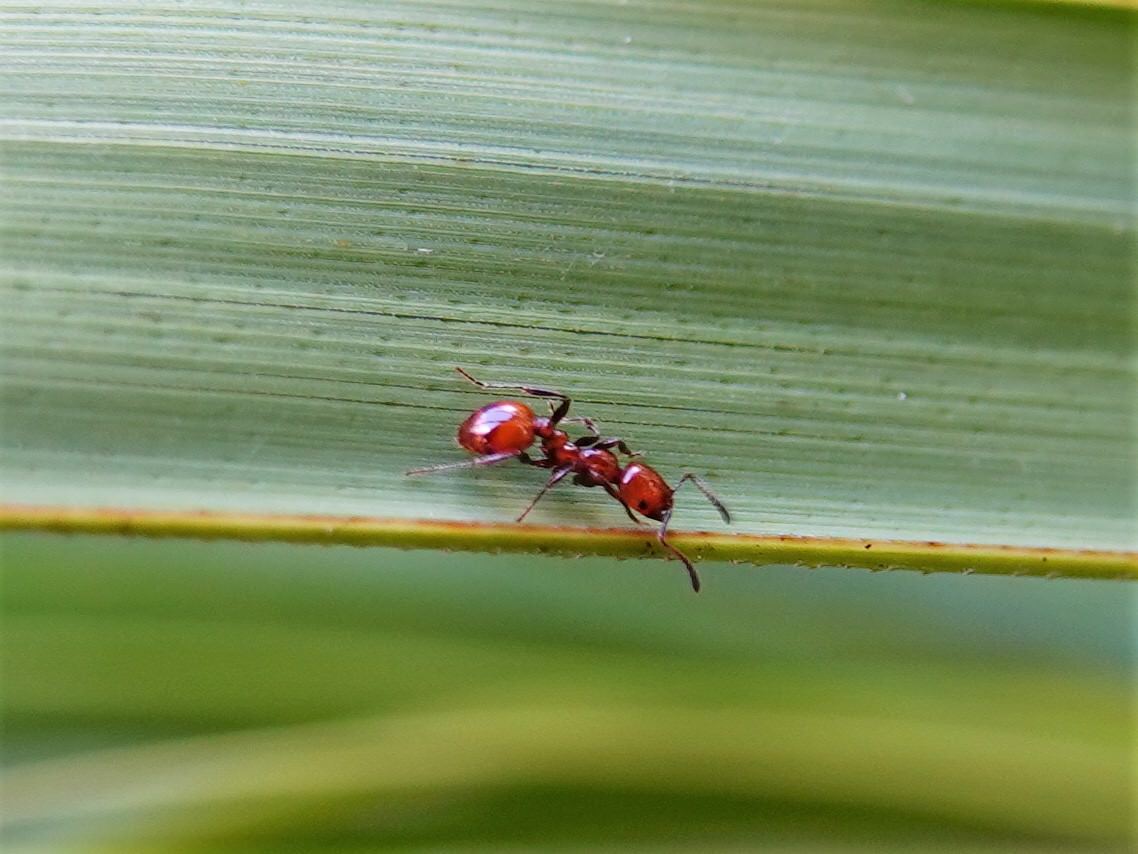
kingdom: Animalia
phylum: Arthropoda
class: Insecta
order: Hymenoptera
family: Formicidae
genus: Monomorium
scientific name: Monomorium antarcticum
